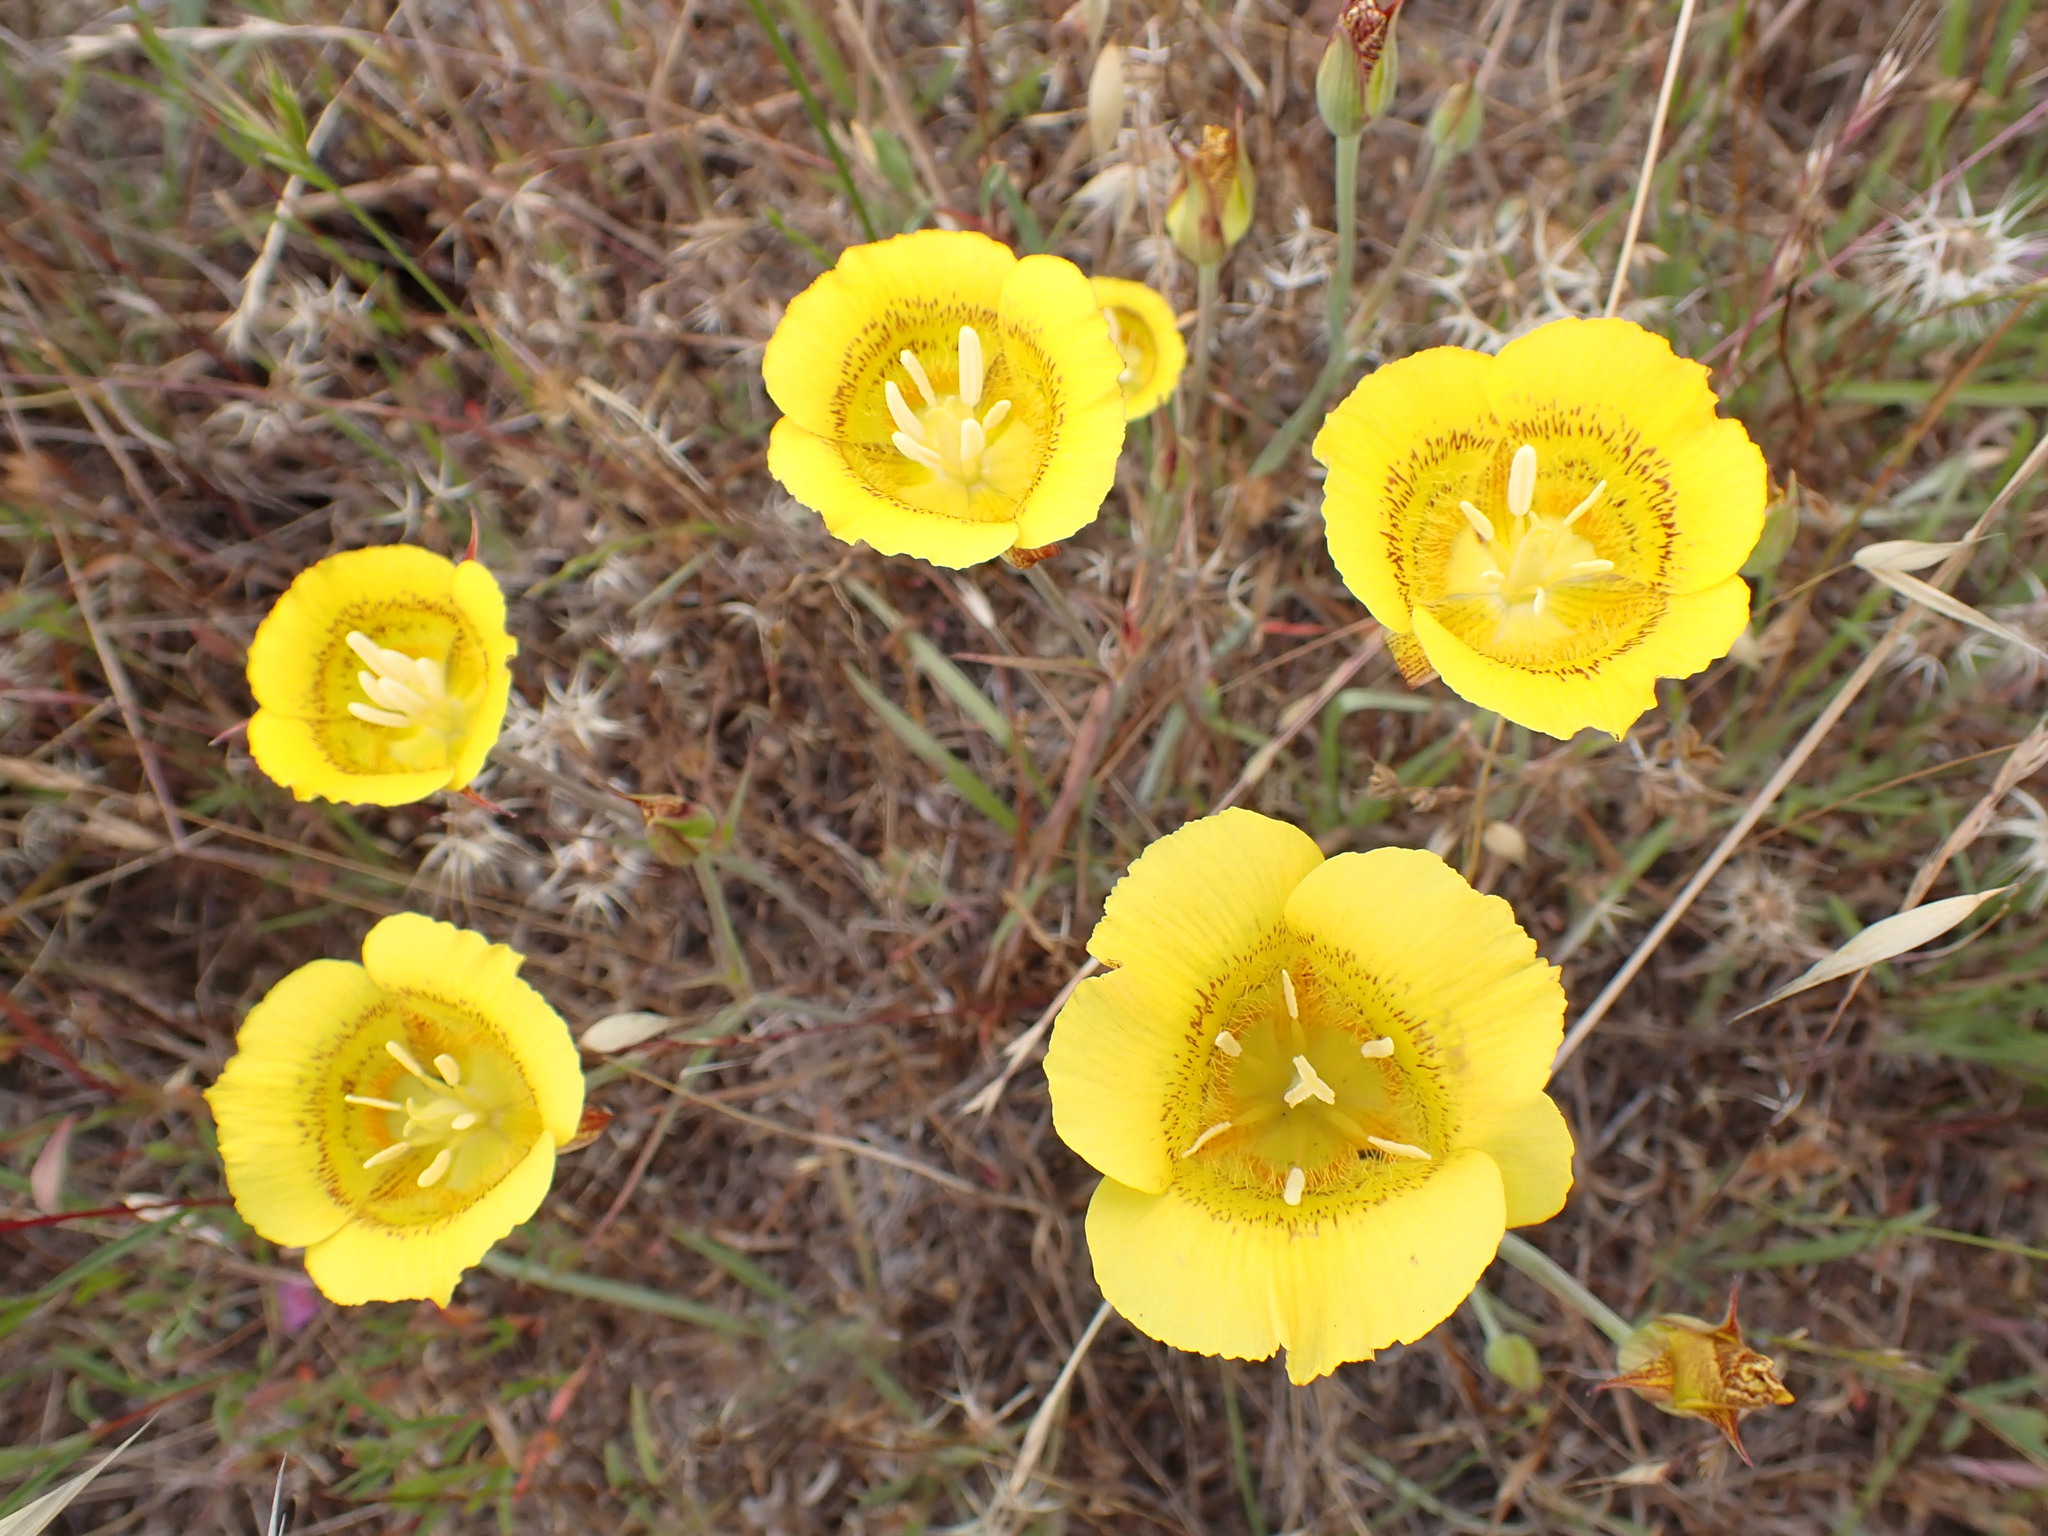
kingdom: Plantae
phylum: Tracheophyta
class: Liliopsida
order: Liliales
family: Liliaceae
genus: Calochortus
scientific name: Calochortus luteus
